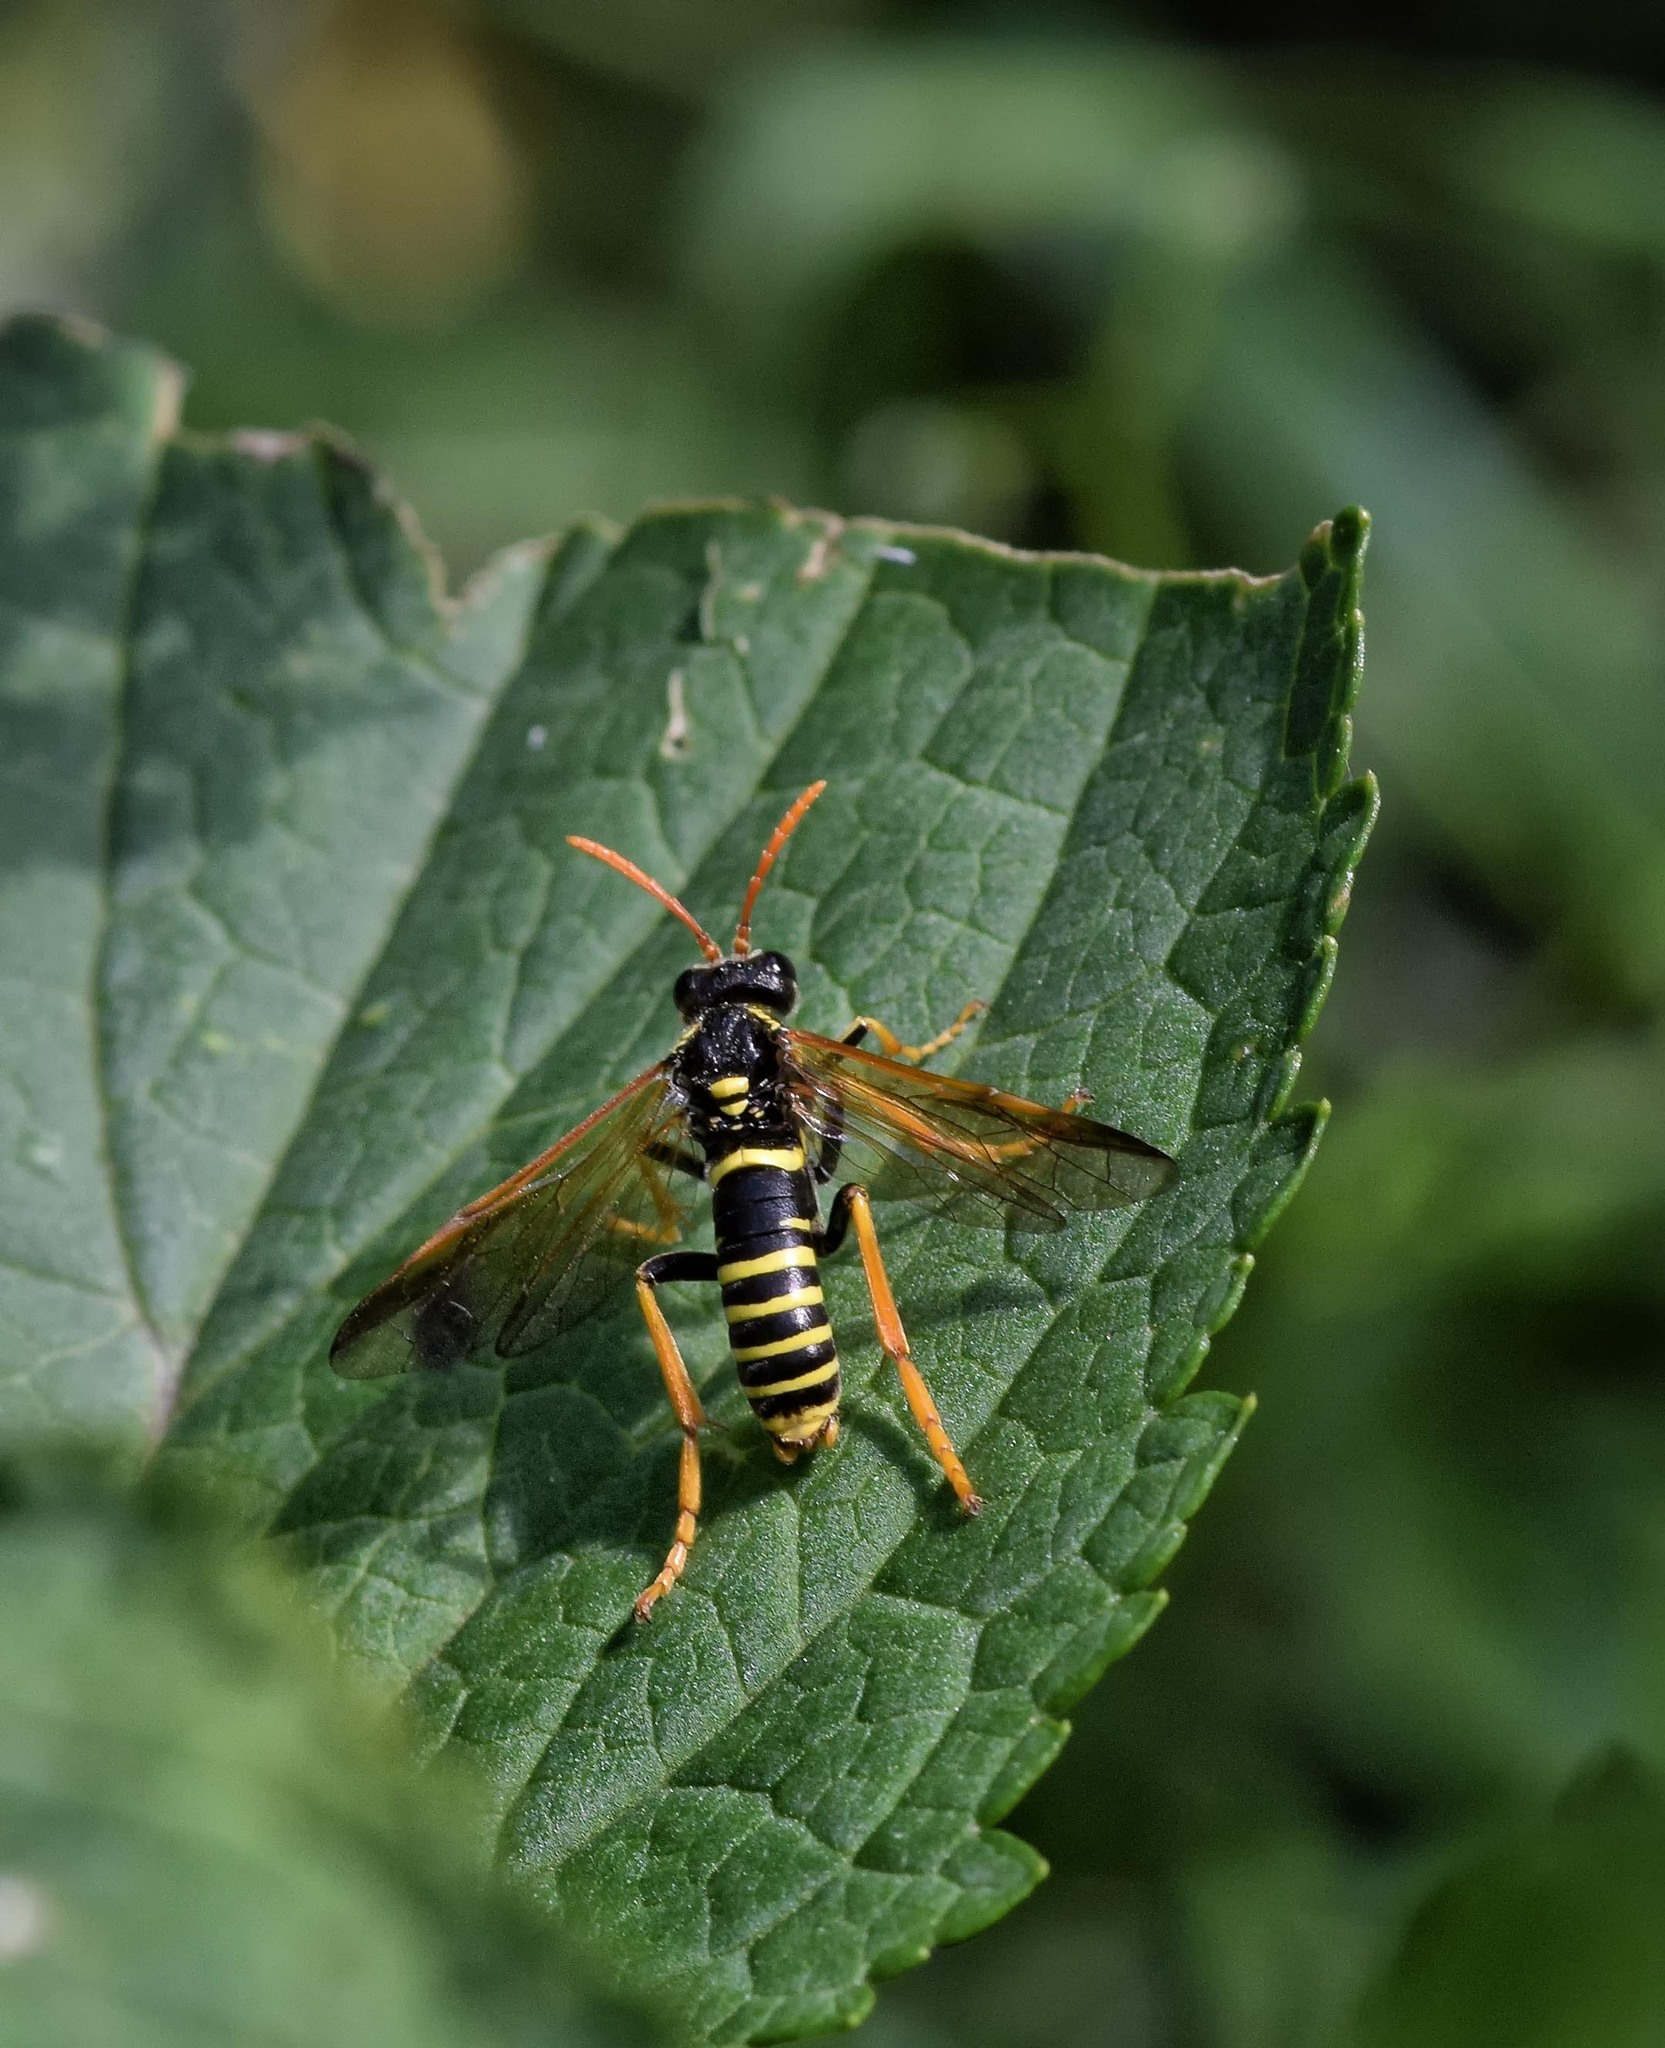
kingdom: Animalia
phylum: Arthropoda
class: Insecta
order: Hymenoptera
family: Tenthredinidae
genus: Tenthredo
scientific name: Tenthredo scrophulariae
